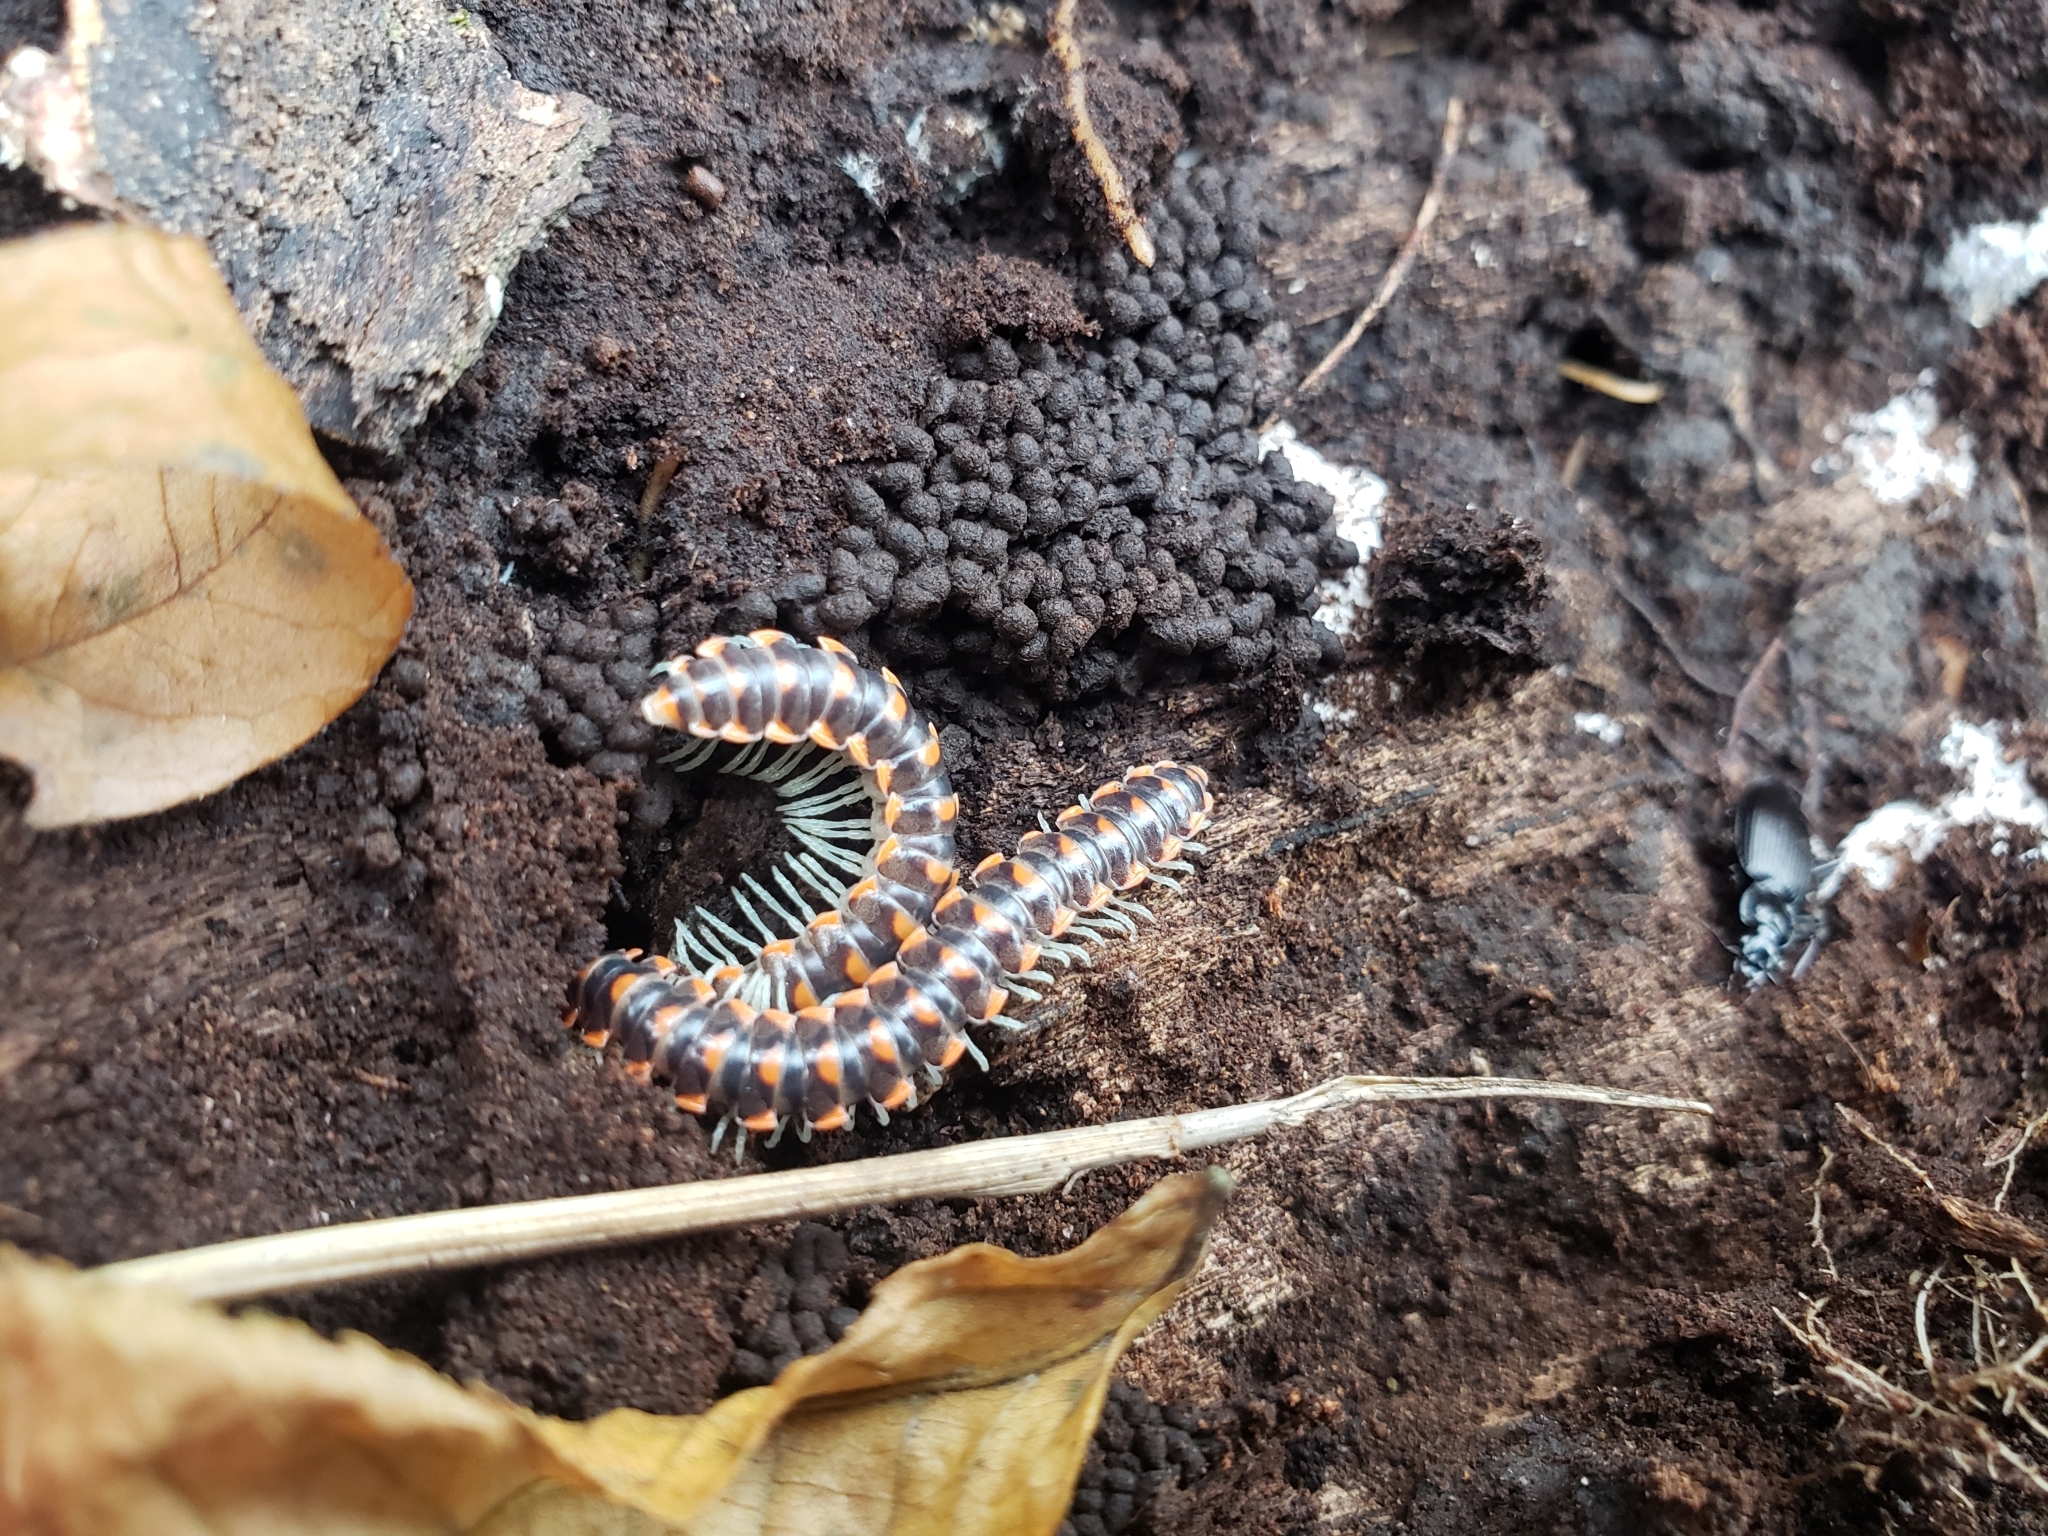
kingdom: Animalia
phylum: Arthropoda
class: Diplopoda
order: Polydesmida
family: Xystodesmidae
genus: Euryurus
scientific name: Euryurus leachii
